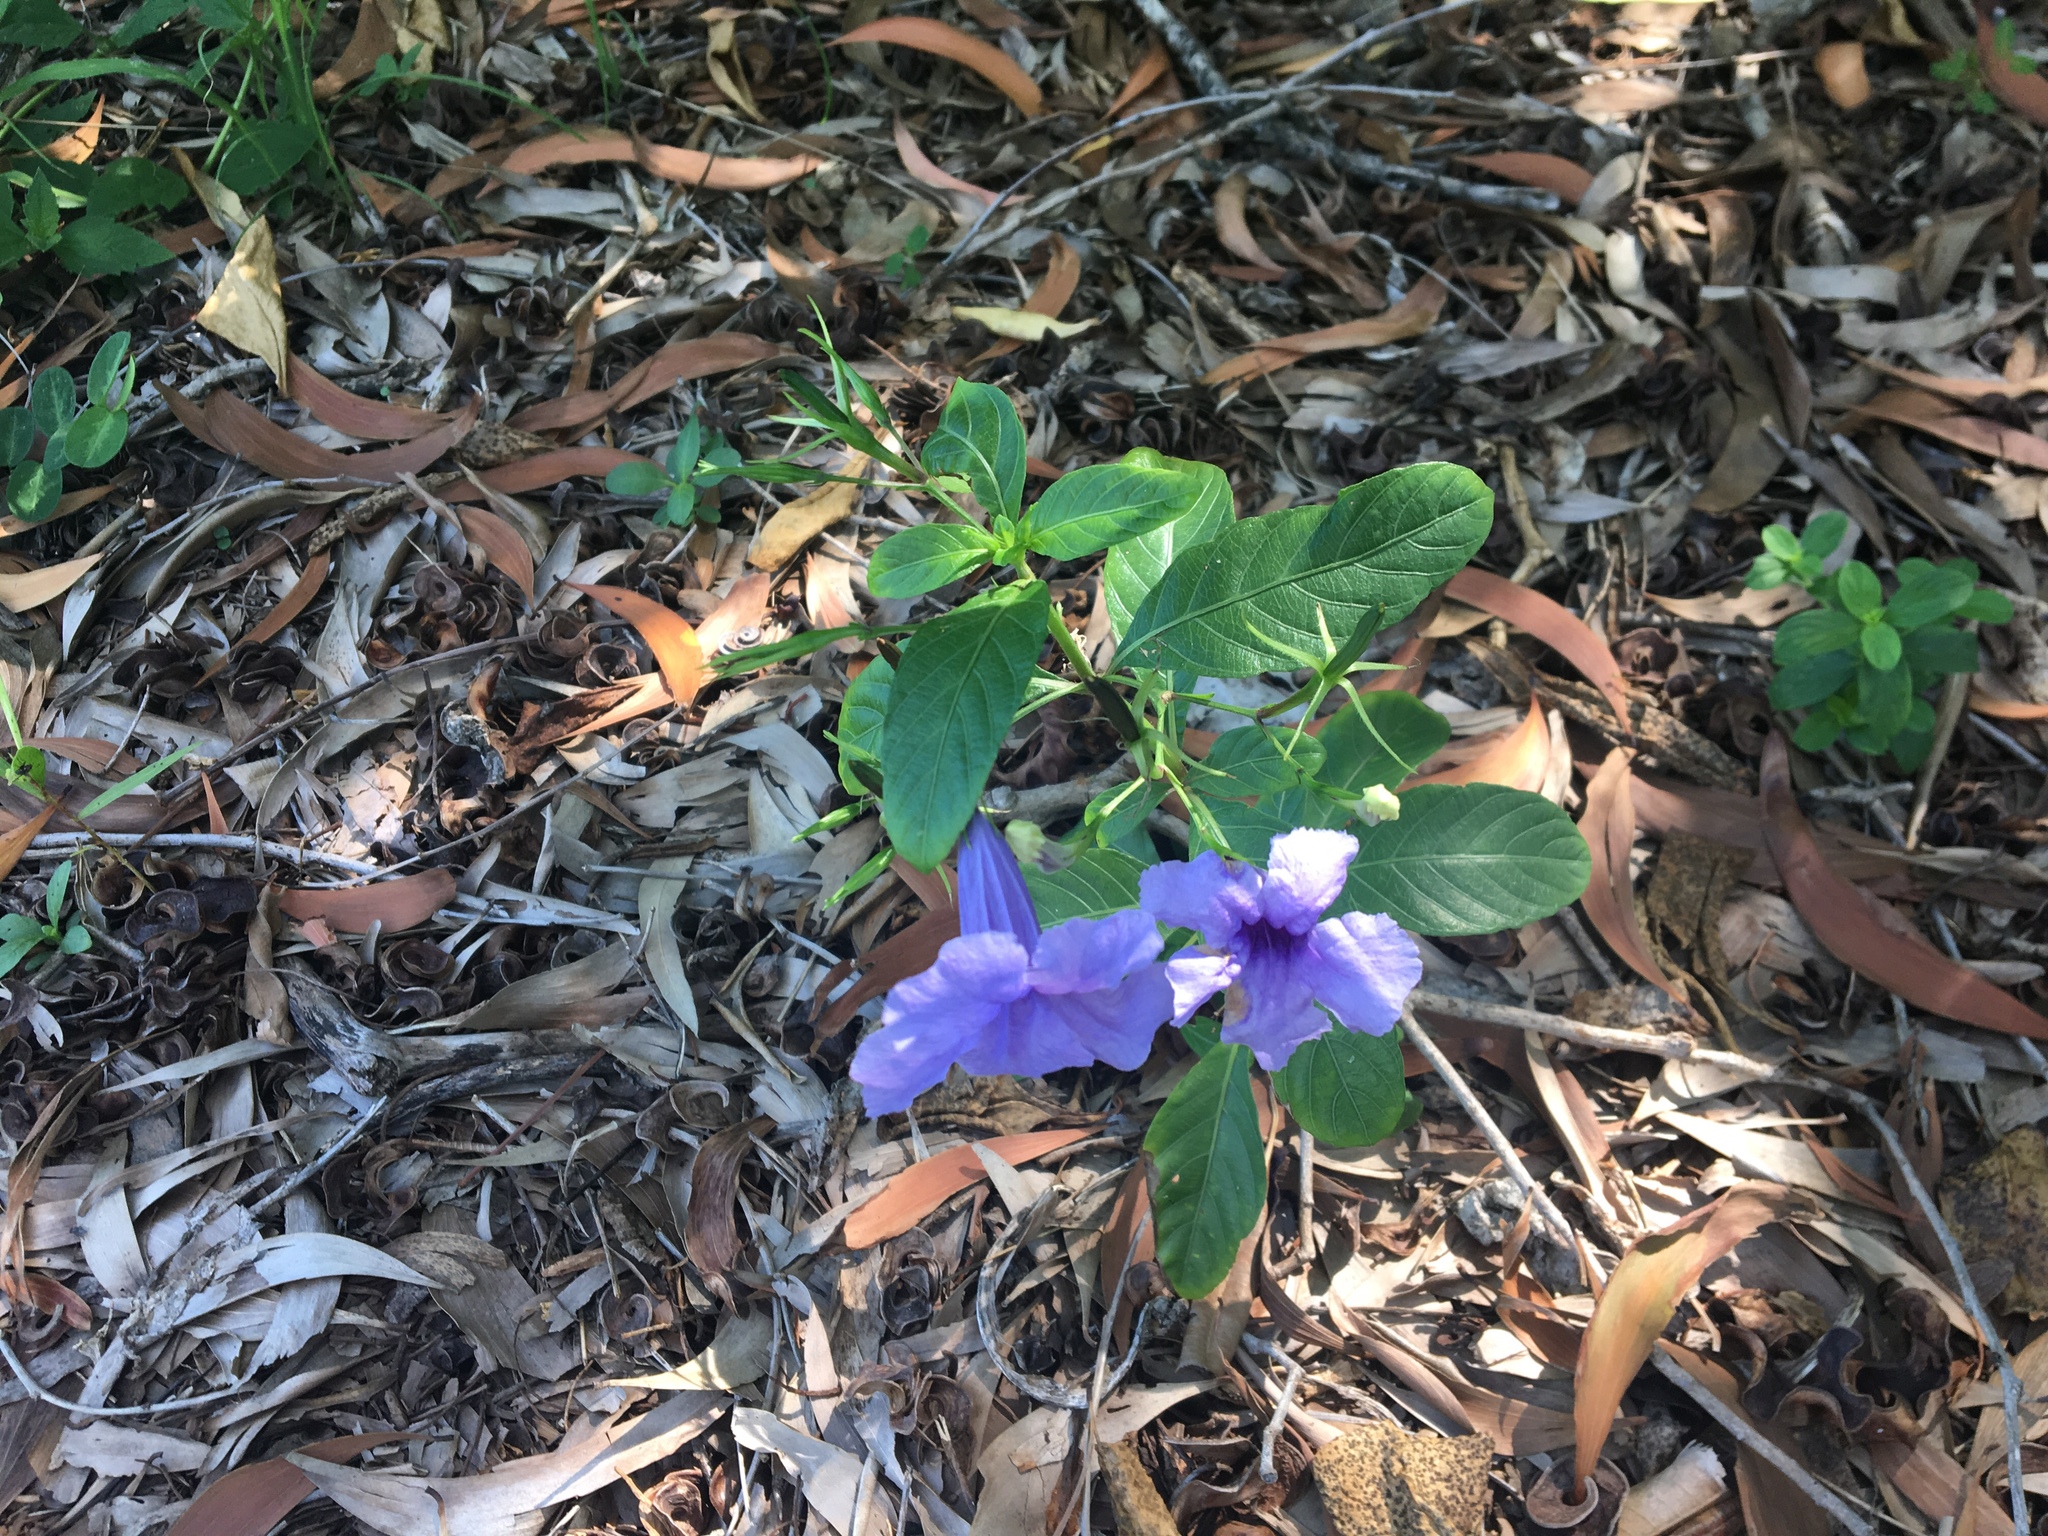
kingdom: Plantae
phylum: Tracheophyta
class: Magnoliopsida
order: Lamiales
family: Acanthaceae
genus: Ruellia
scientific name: Ruellia tuberosa
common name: Devil's bit
